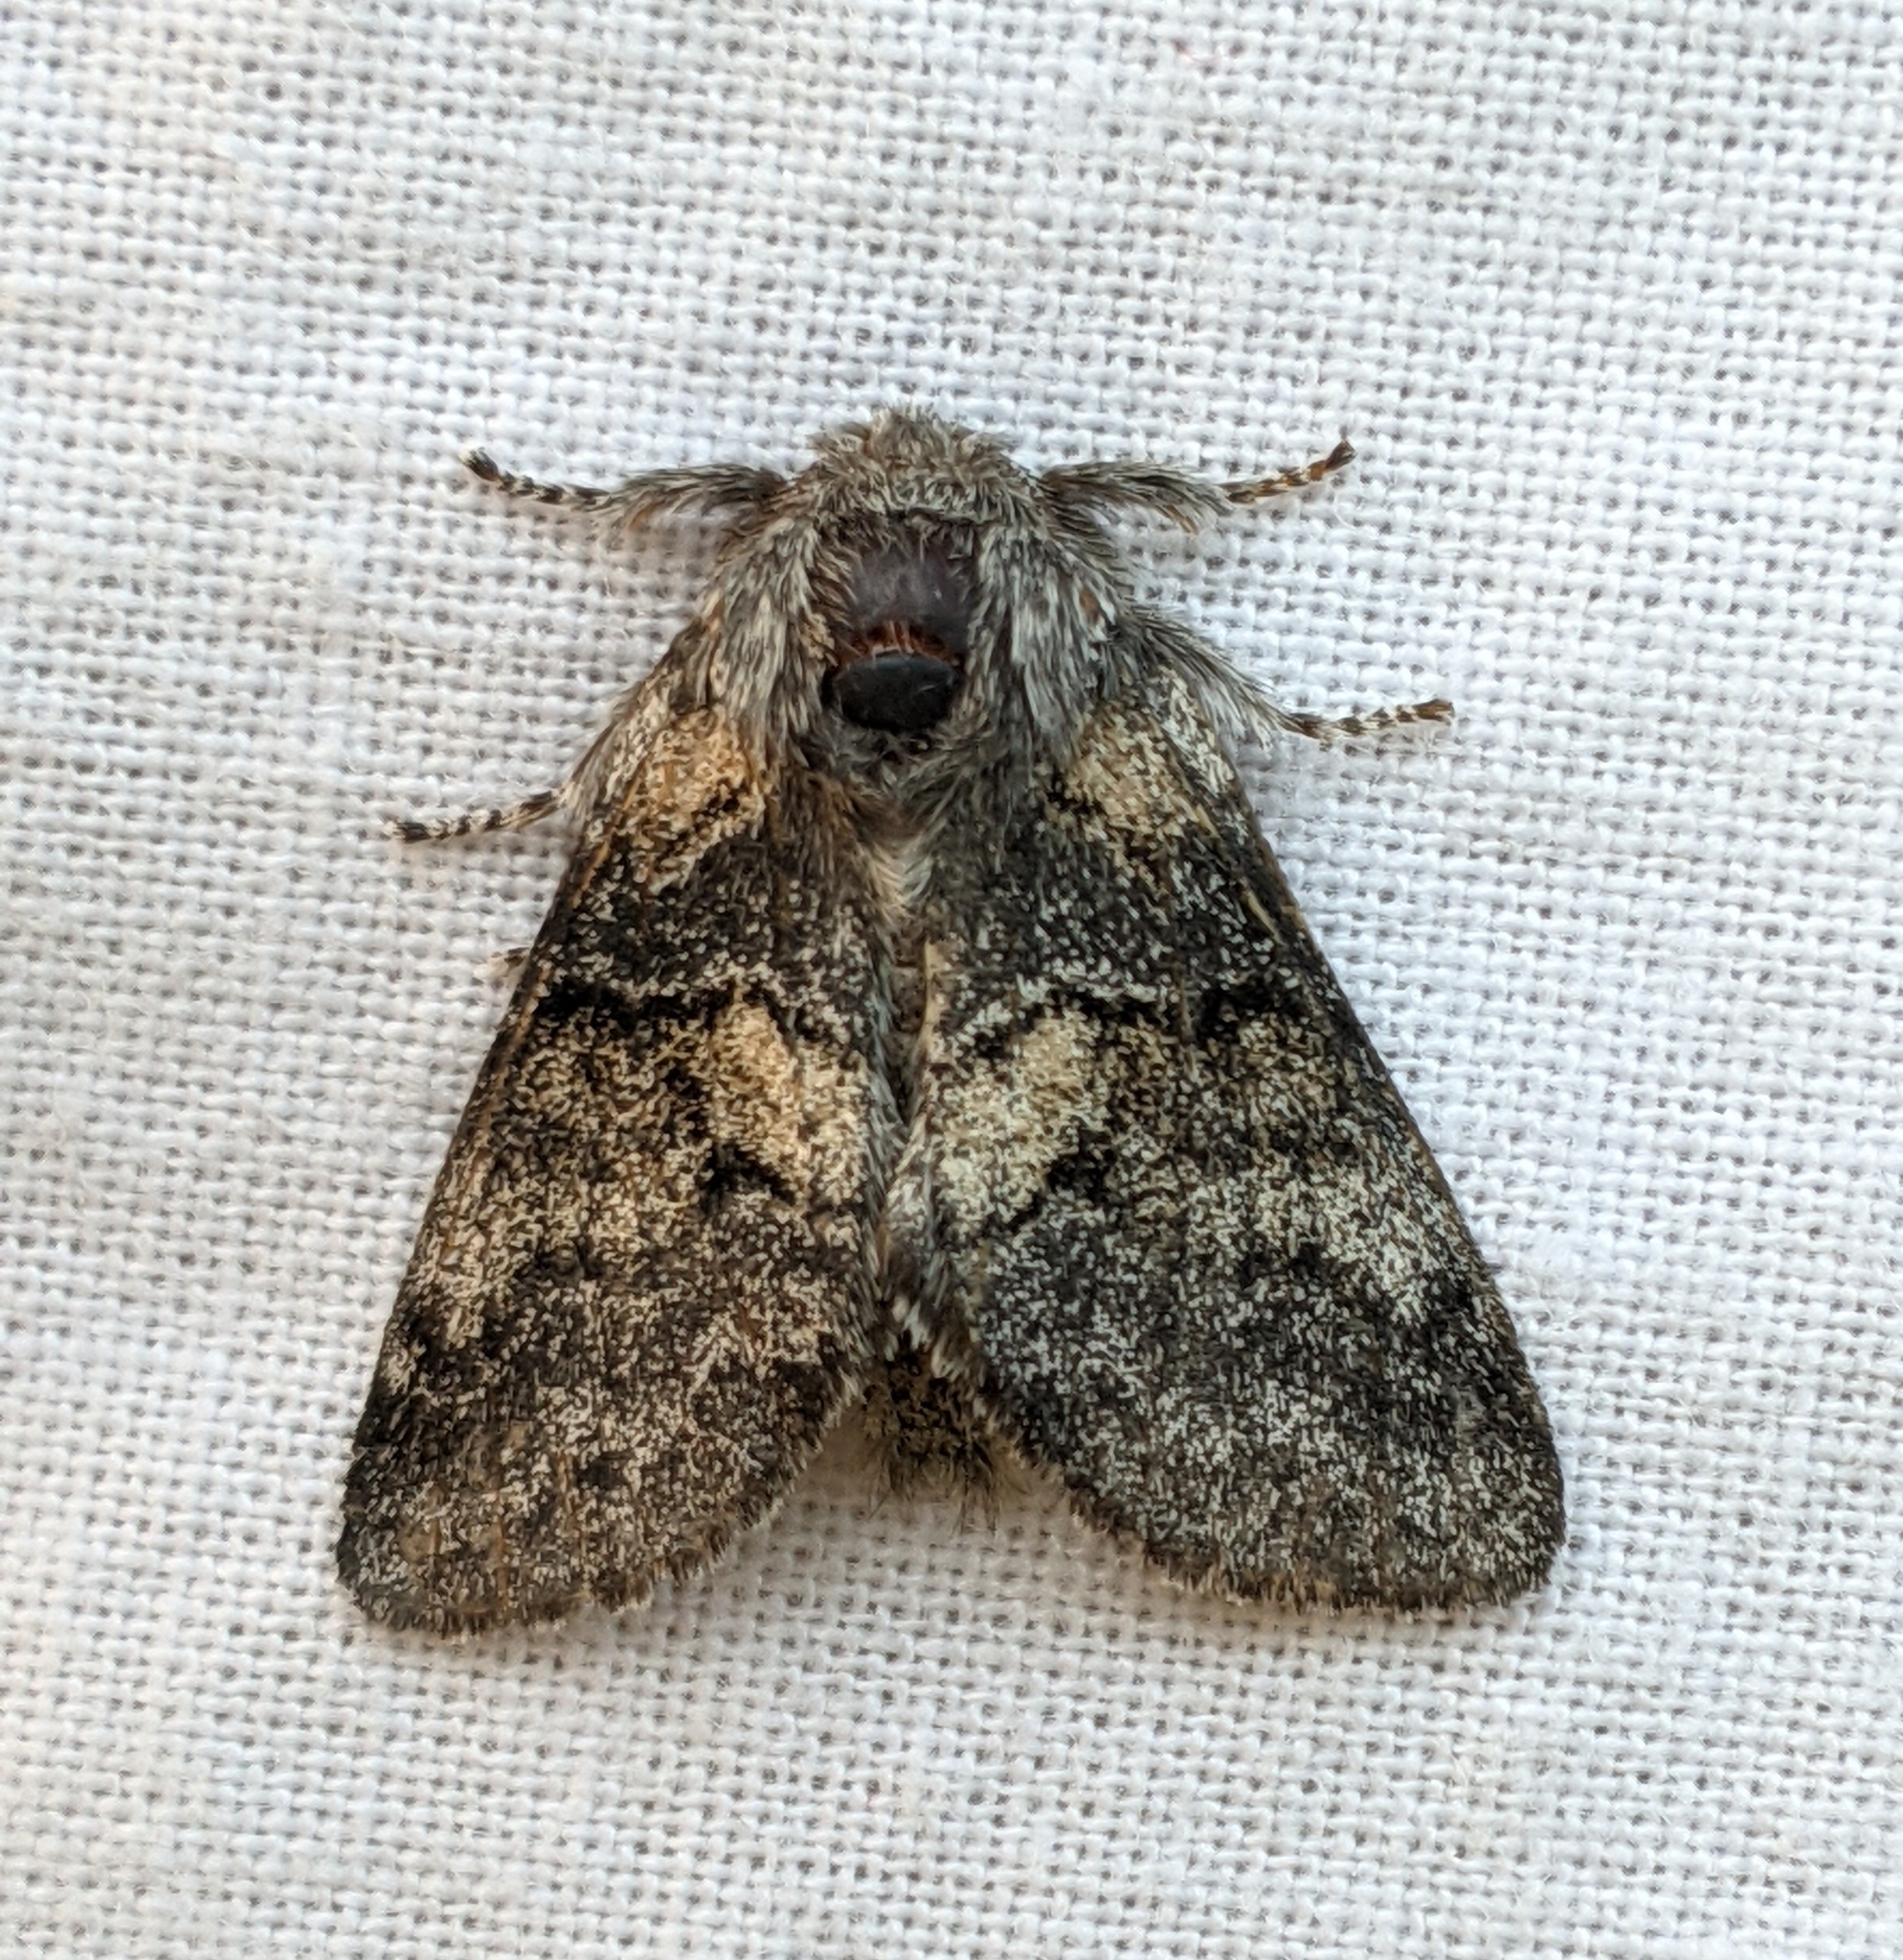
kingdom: Animalia
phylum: Arthropoda
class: Insecta
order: Lepidoptera
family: Notodontidae
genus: Gluphisia
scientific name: Gluphisia septentrionis
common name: Common gluphisia
